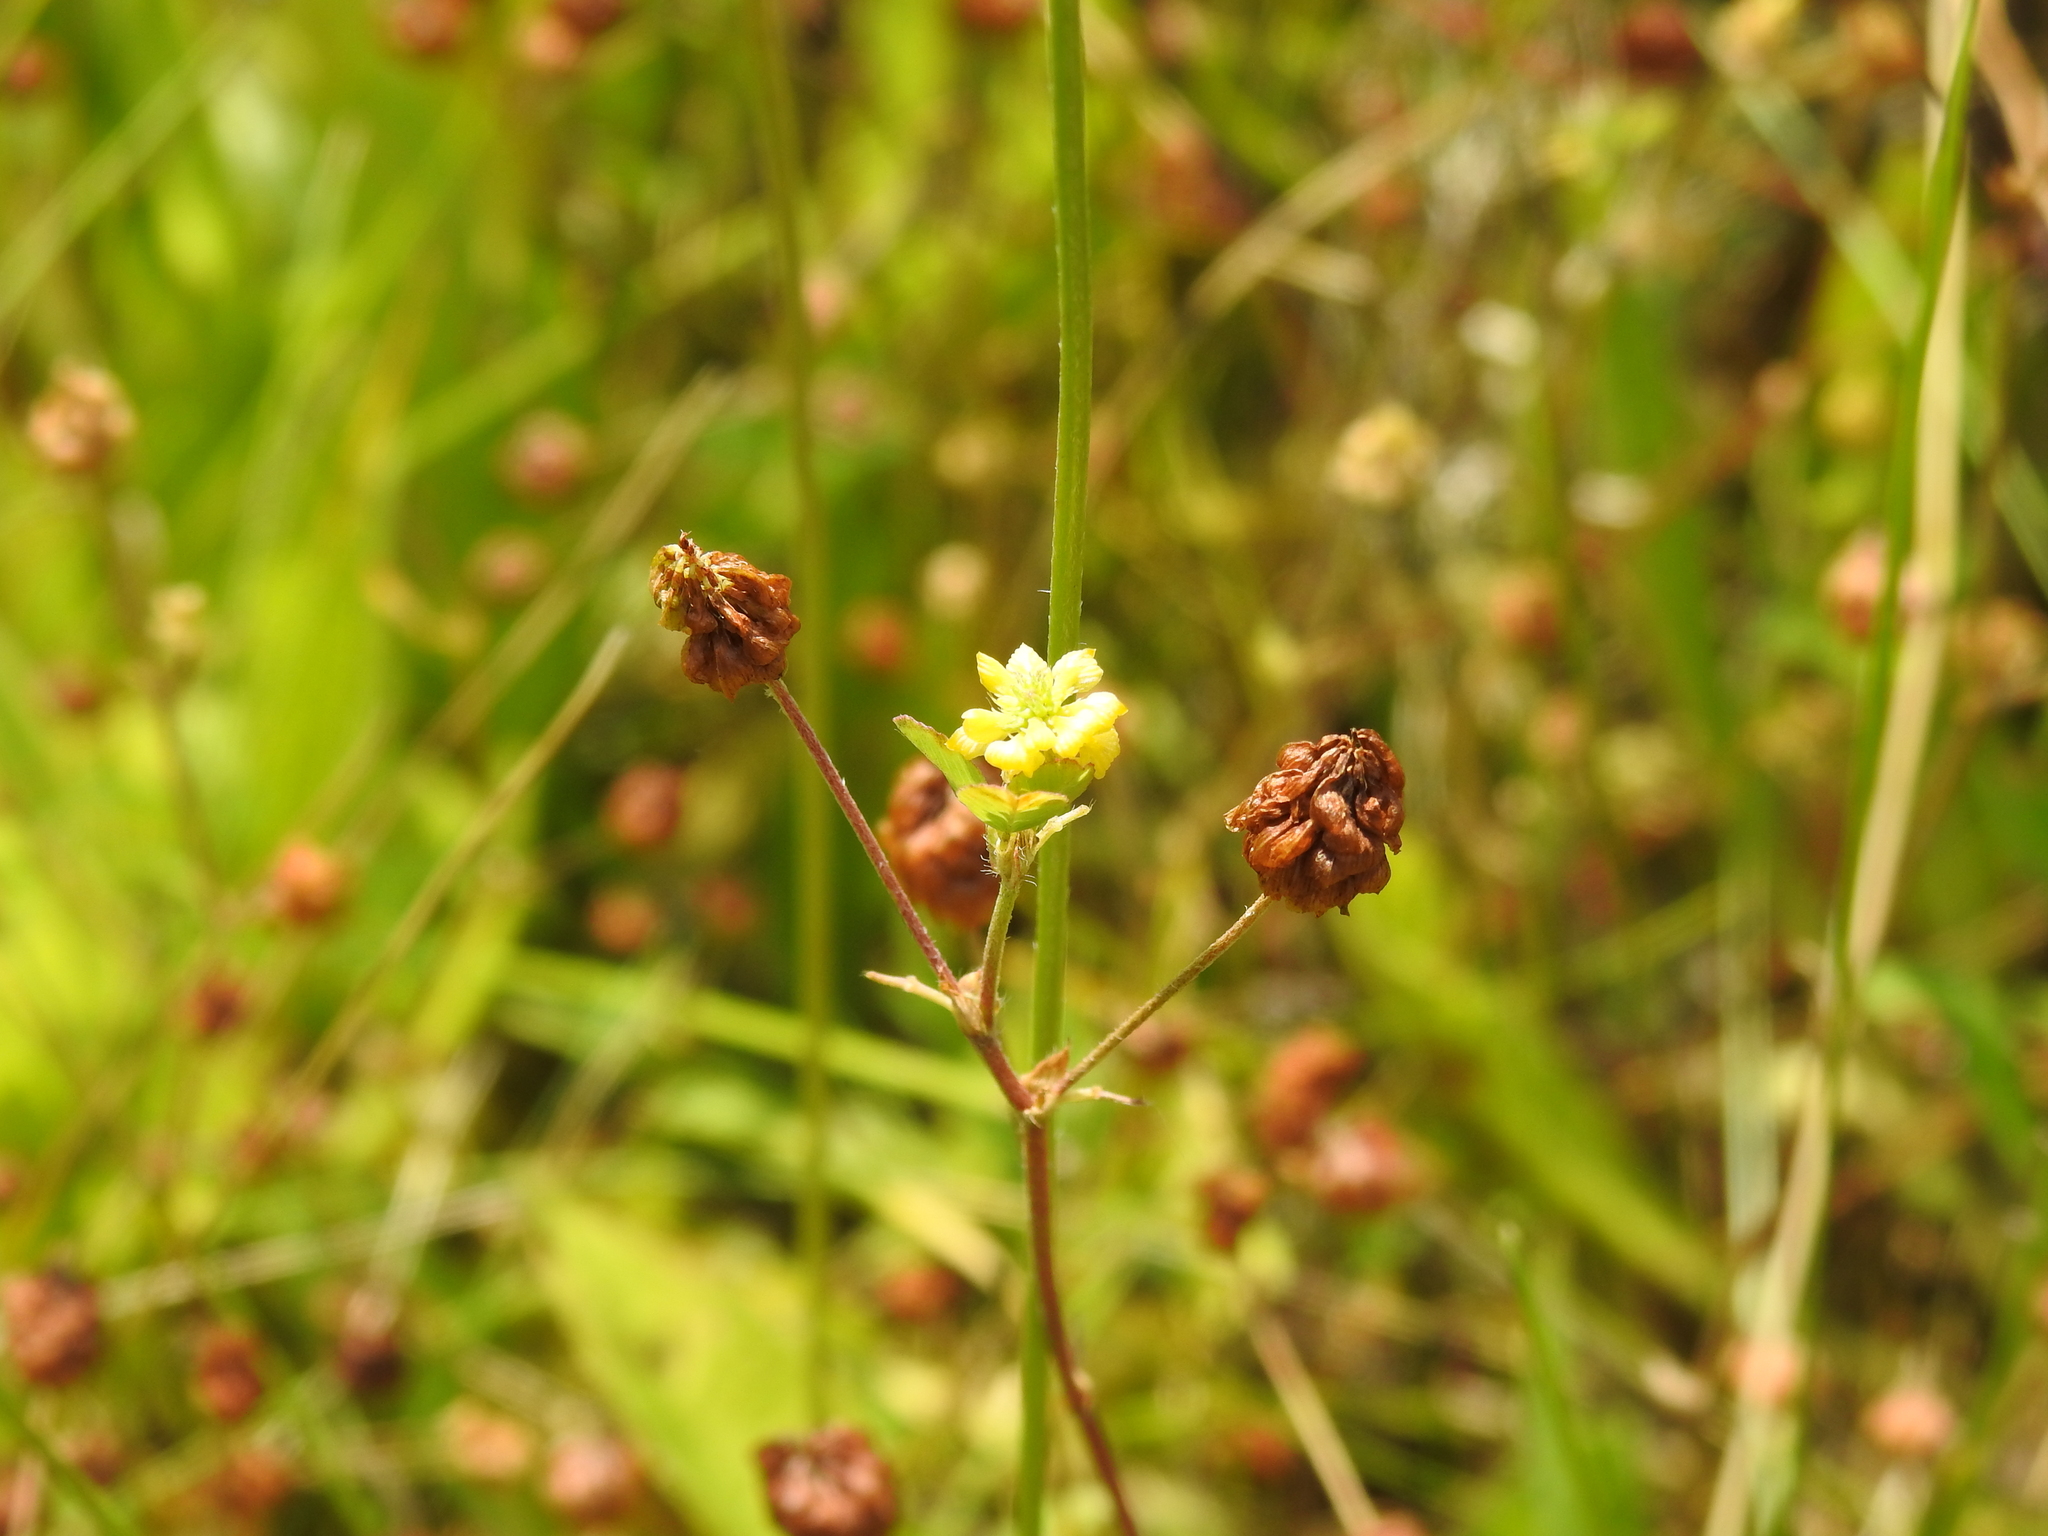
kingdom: Plantae
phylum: Tracheophyta
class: Magnoliopsida
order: Fabales
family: Fabaceae
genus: Trifolium
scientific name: Trifolium campestre
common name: Field clover
